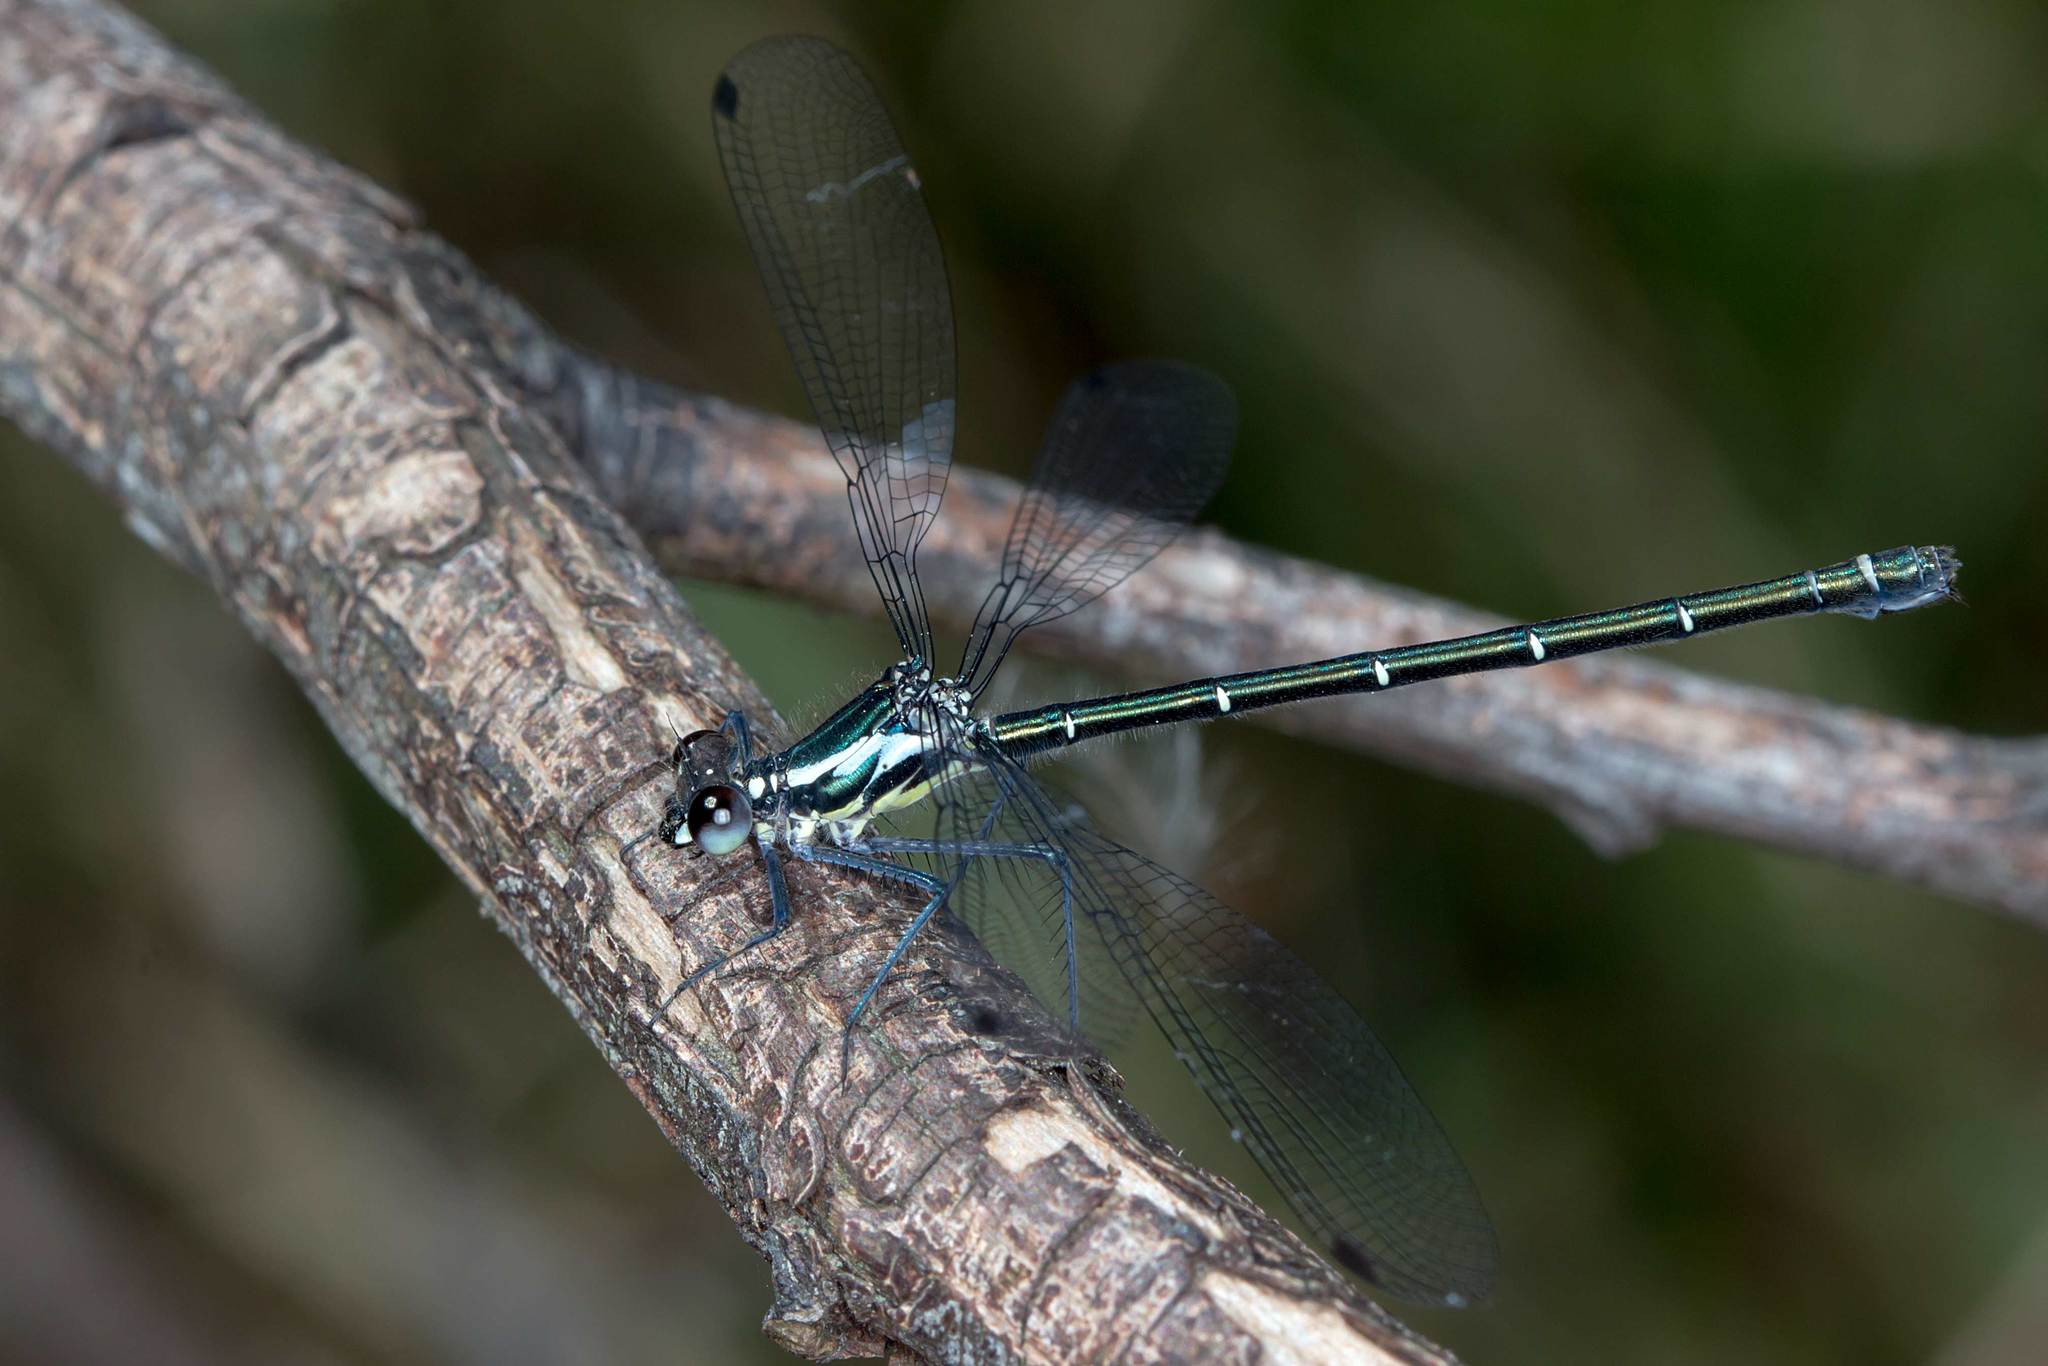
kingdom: Animalia
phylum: Arthropoda
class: Insecta
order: Odonata
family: Argiolestidae
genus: Austroargiolestes
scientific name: Austroargiolestes icteromelas
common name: Common flatwing
